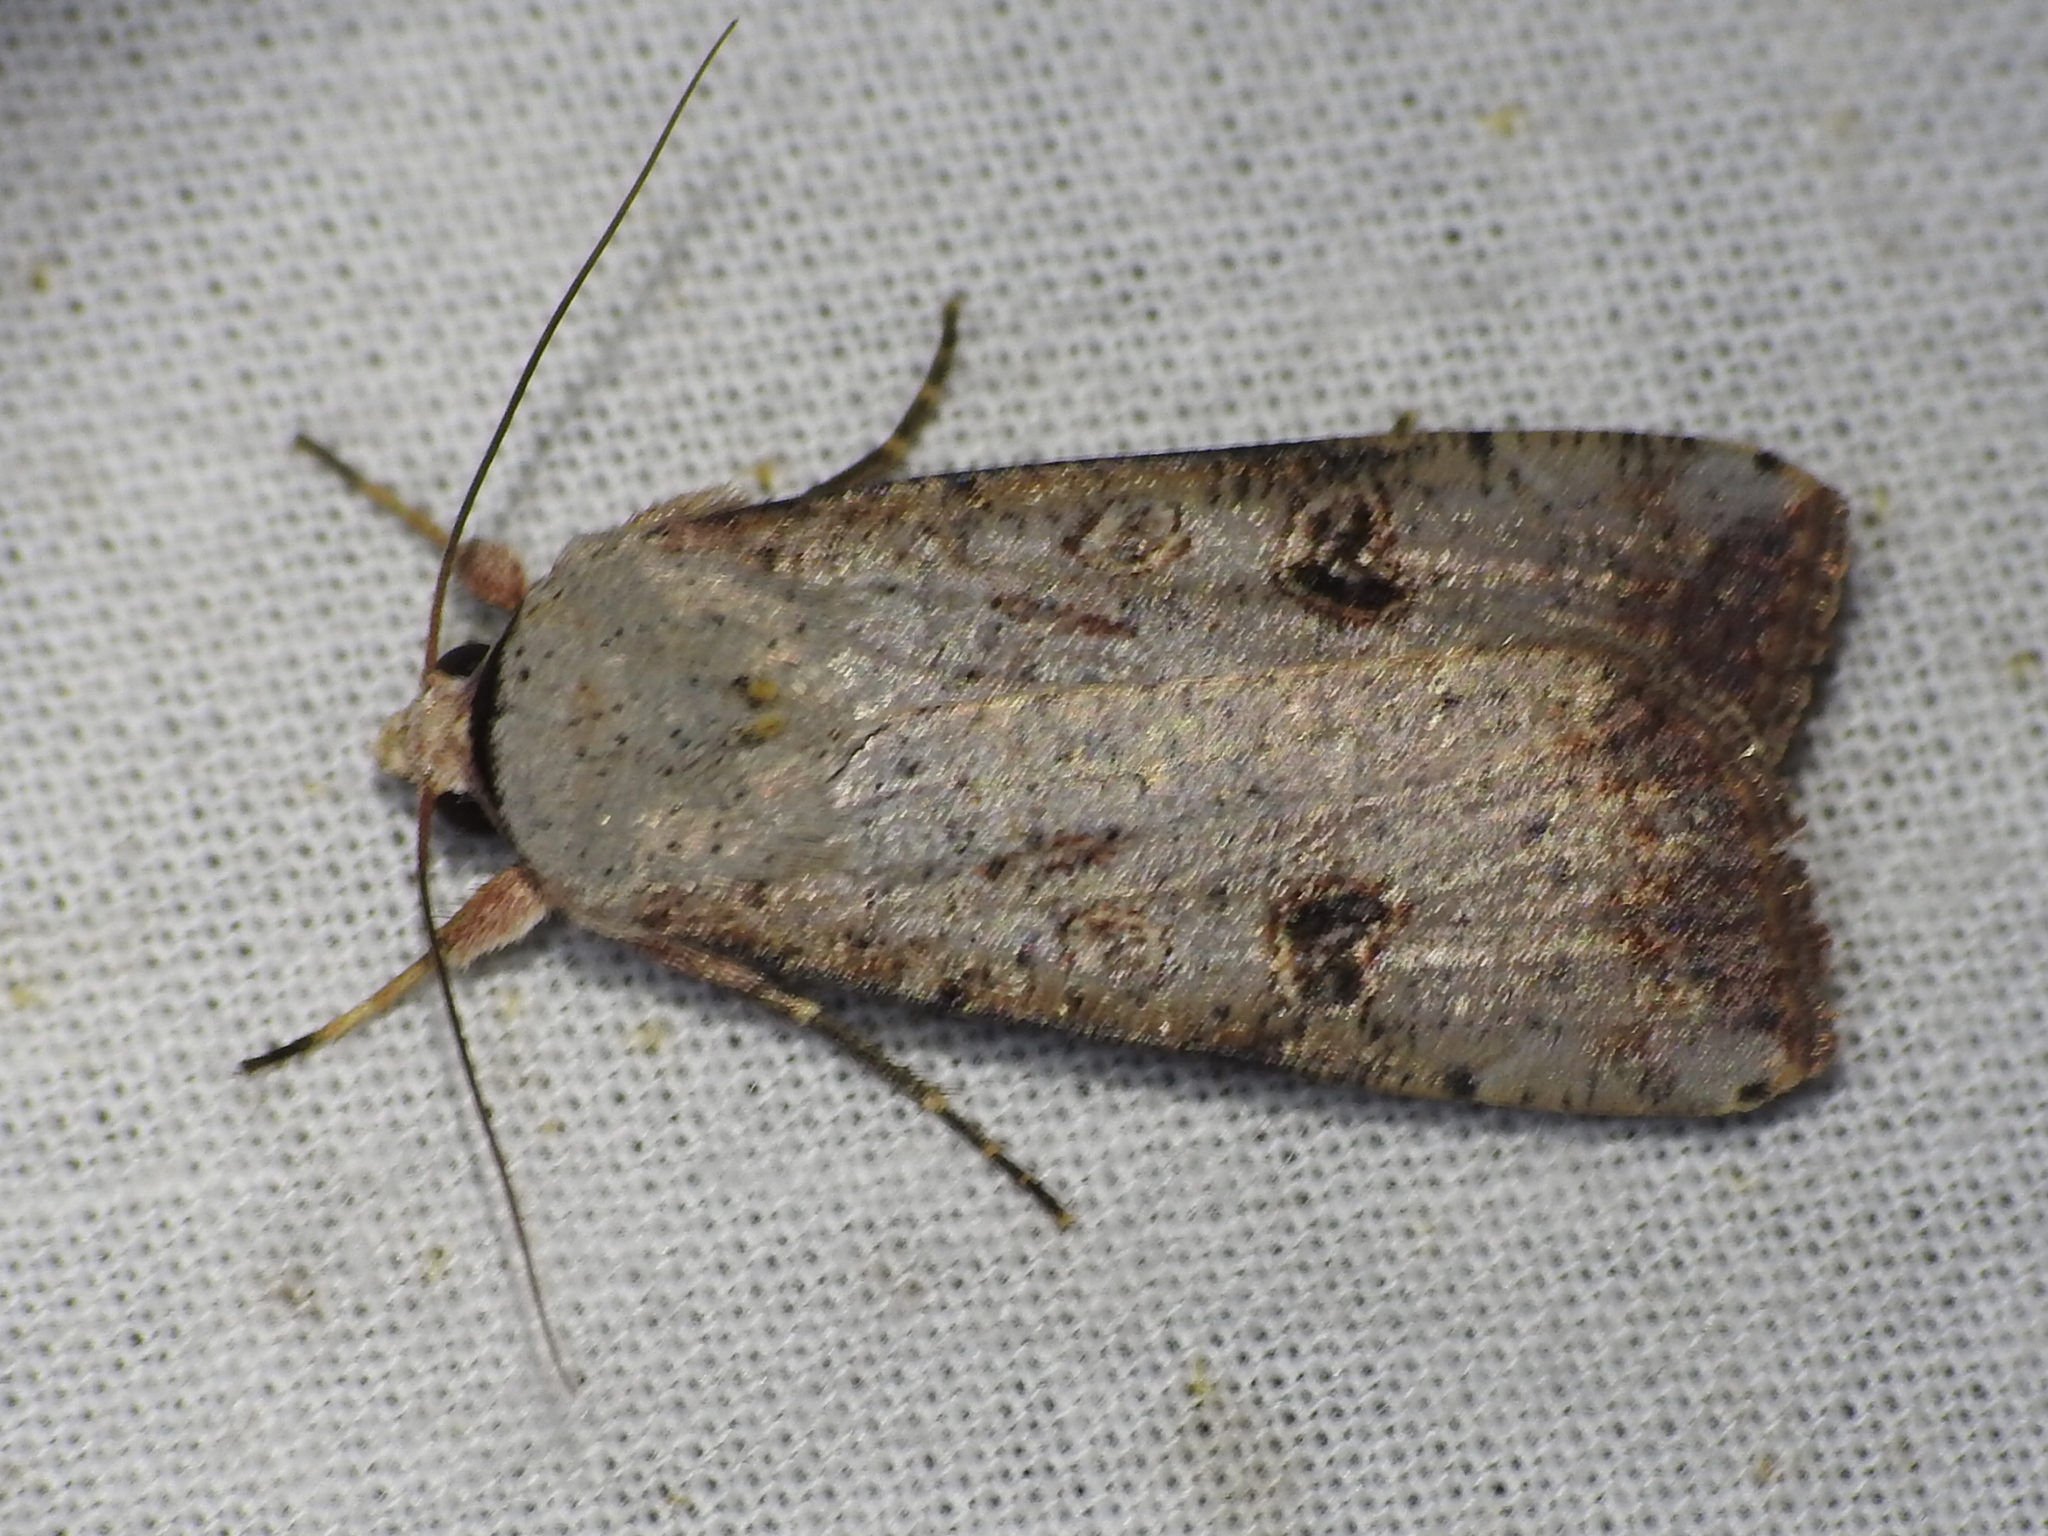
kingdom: Animalia
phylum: Arthropoda
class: Insecta
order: Lepidoptera
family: Noctuidae
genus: Anicla
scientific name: Anicla infecta
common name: Green cutworm
